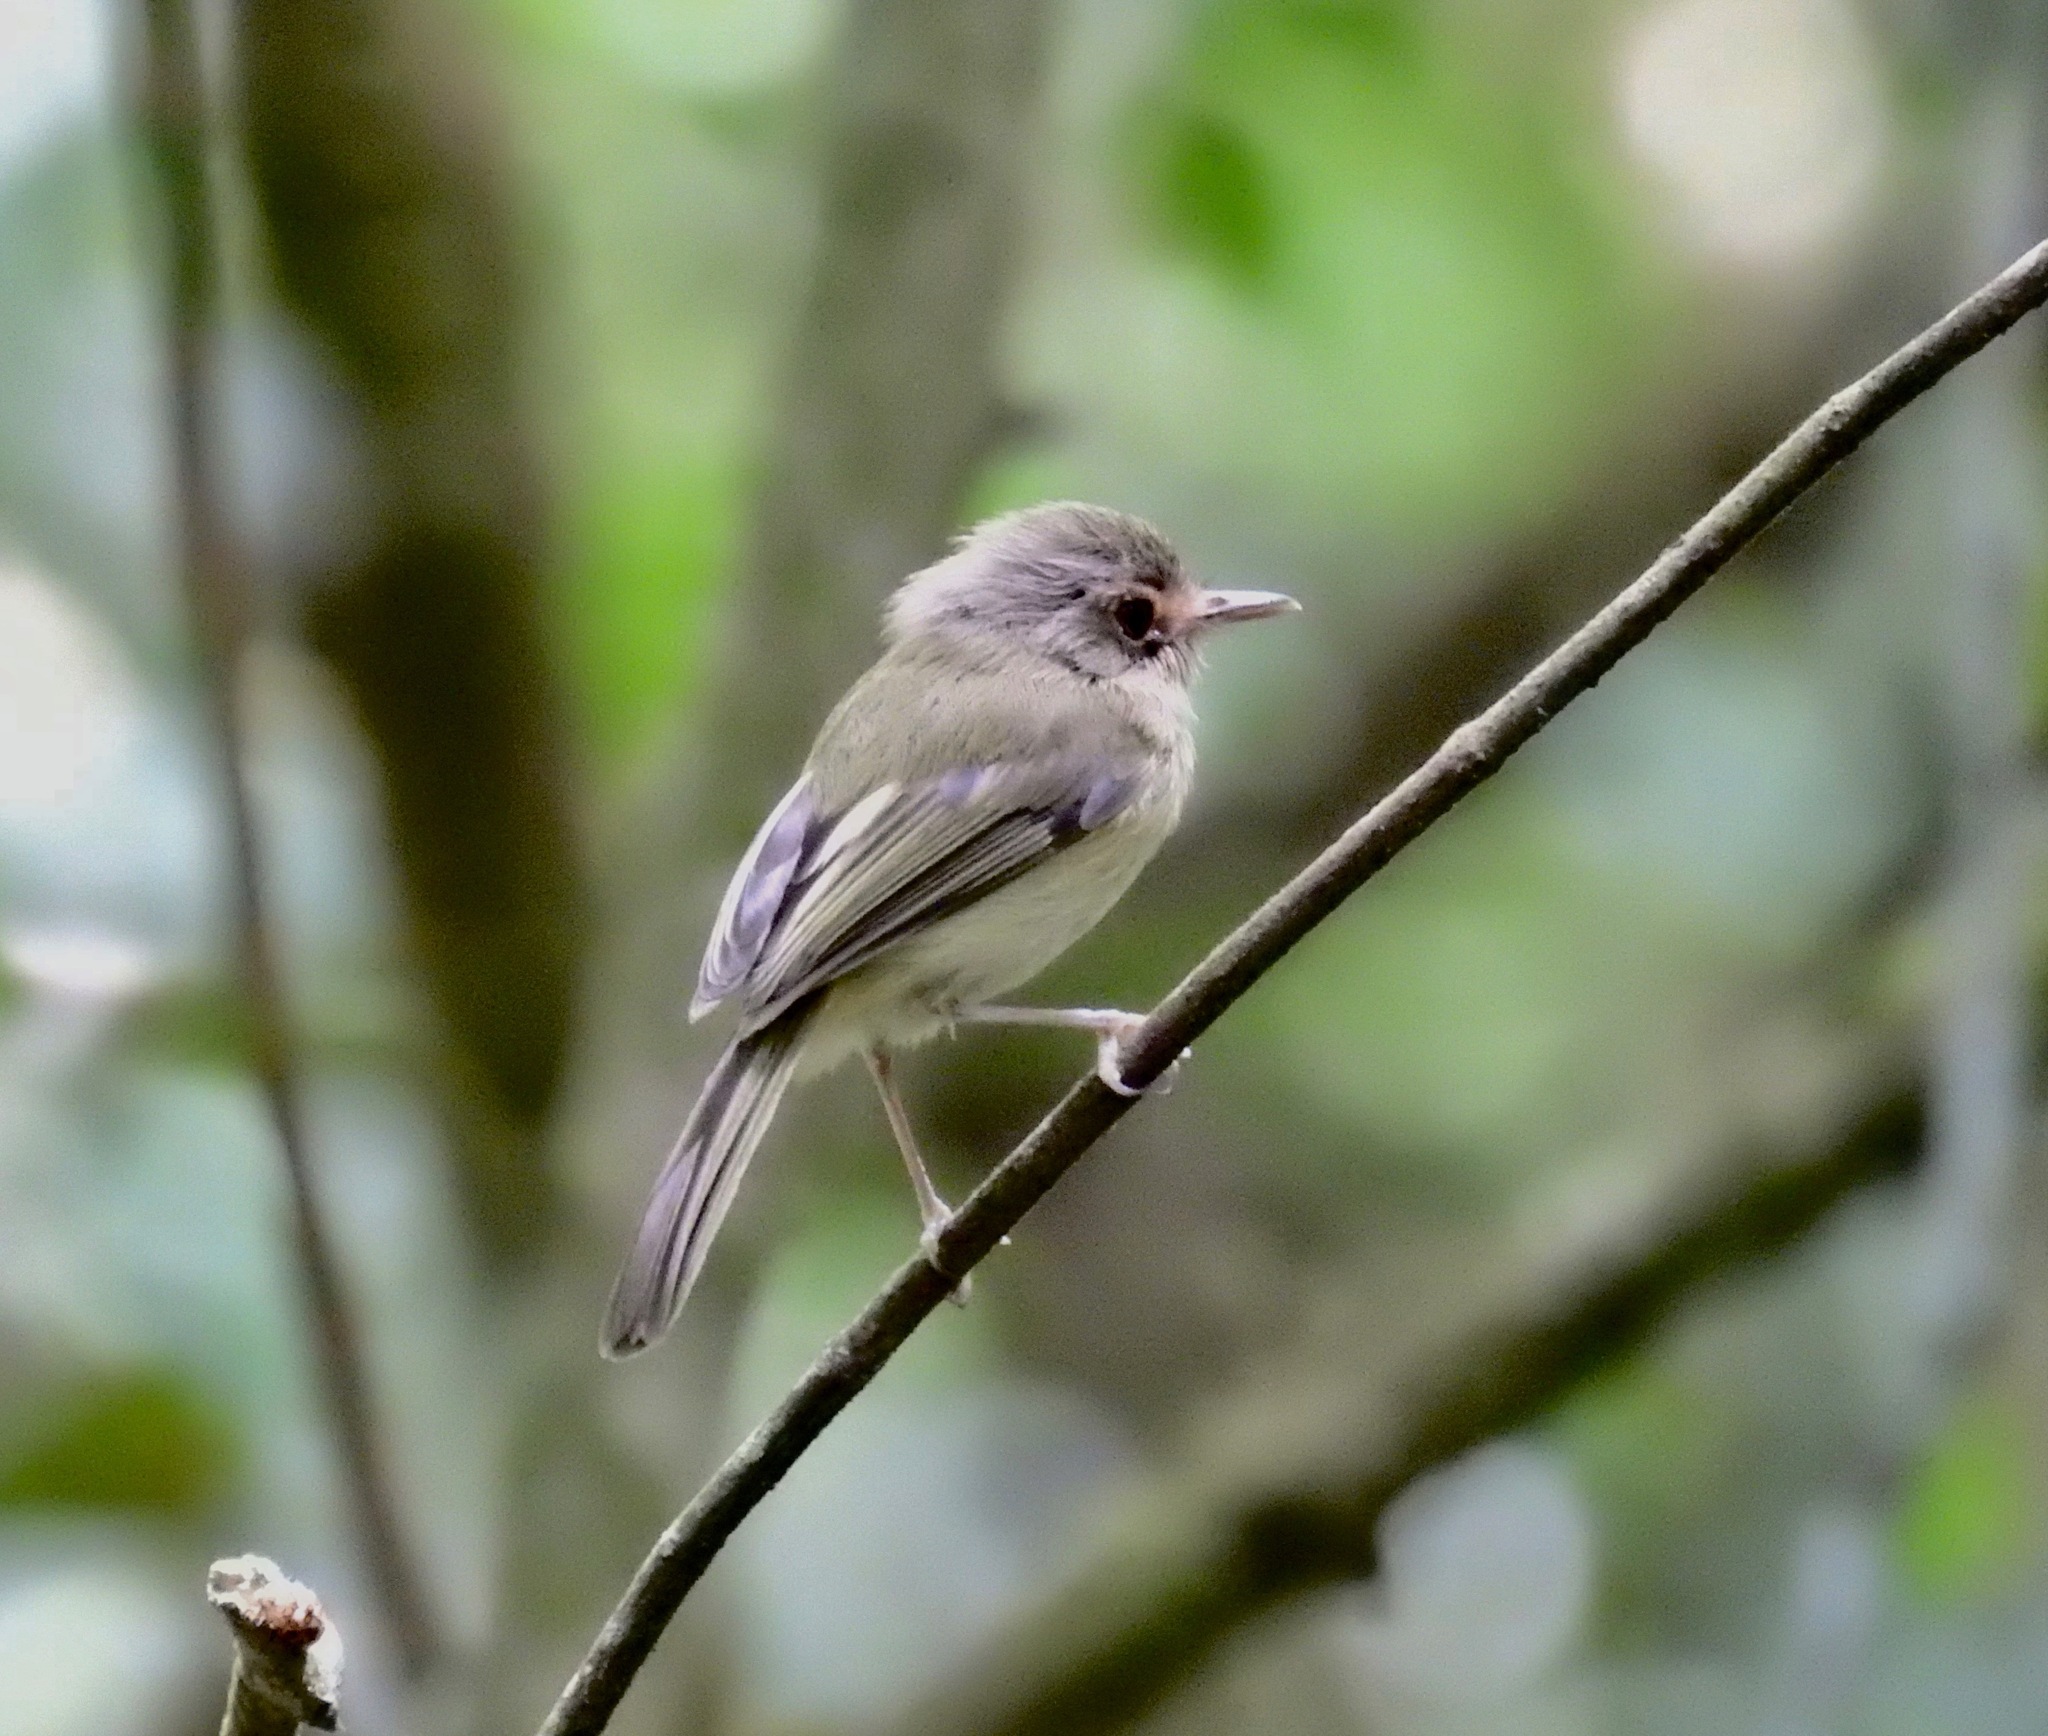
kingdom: Animalia
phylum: Chordata
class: Aves
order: Passeriformes
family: Tyrannidae
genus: Hemitriccus
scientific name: Hemitriccus mirandae
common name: Buff-breasted tody-tyrant
